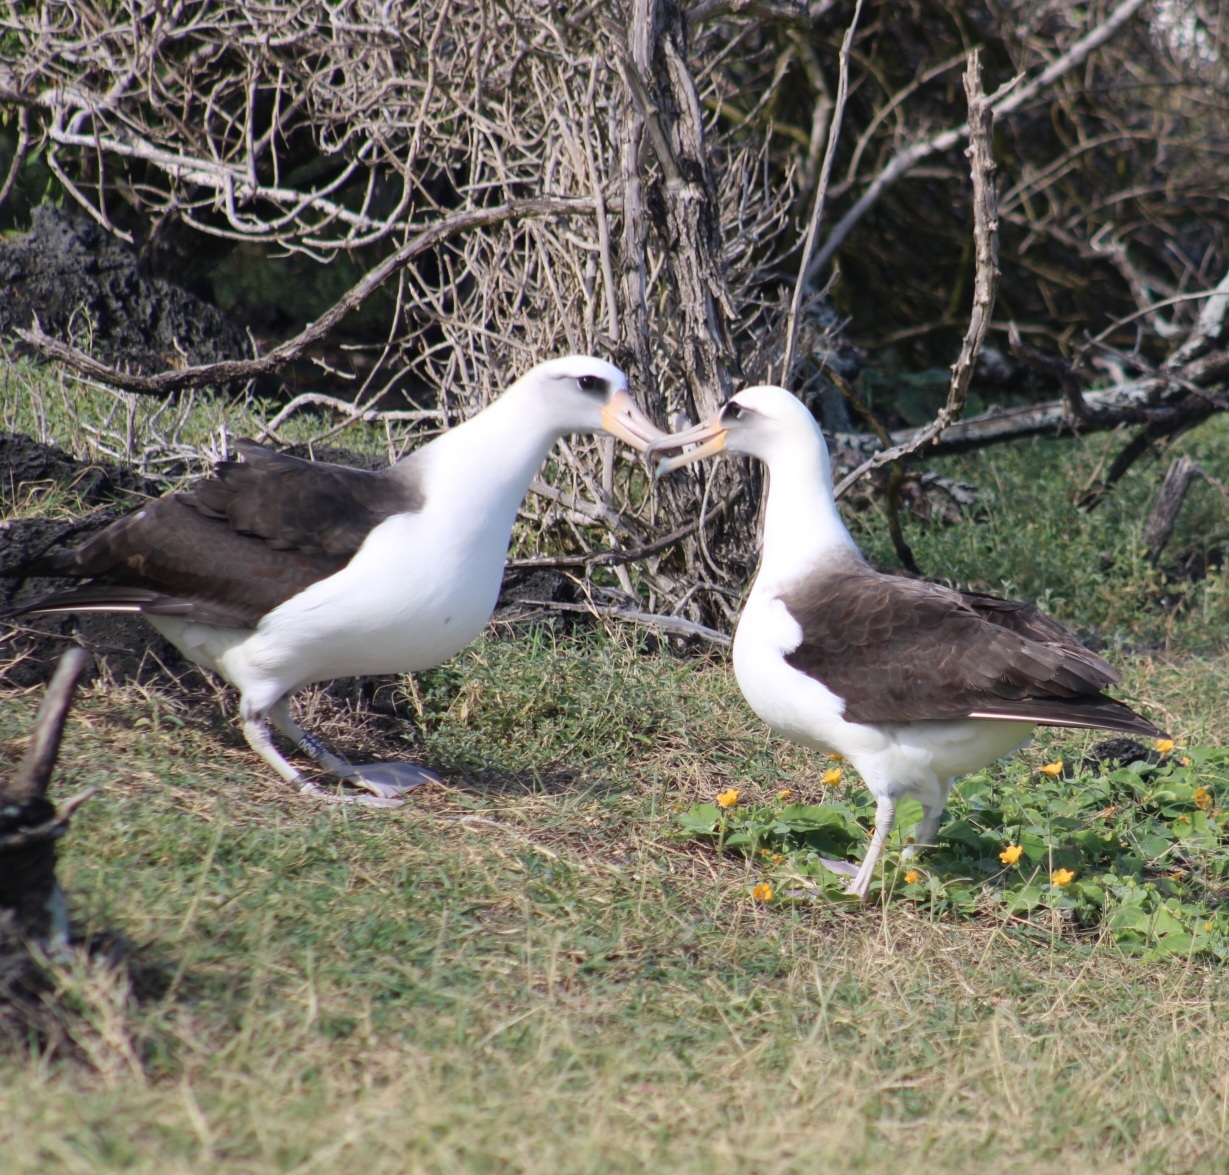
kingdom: Animalia
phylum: Chordata
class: Aves
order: Procellariiformes
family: Diomedeidae
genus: Phoebastria
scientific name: Phoebastria immutabilis
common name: Laysan albatross
